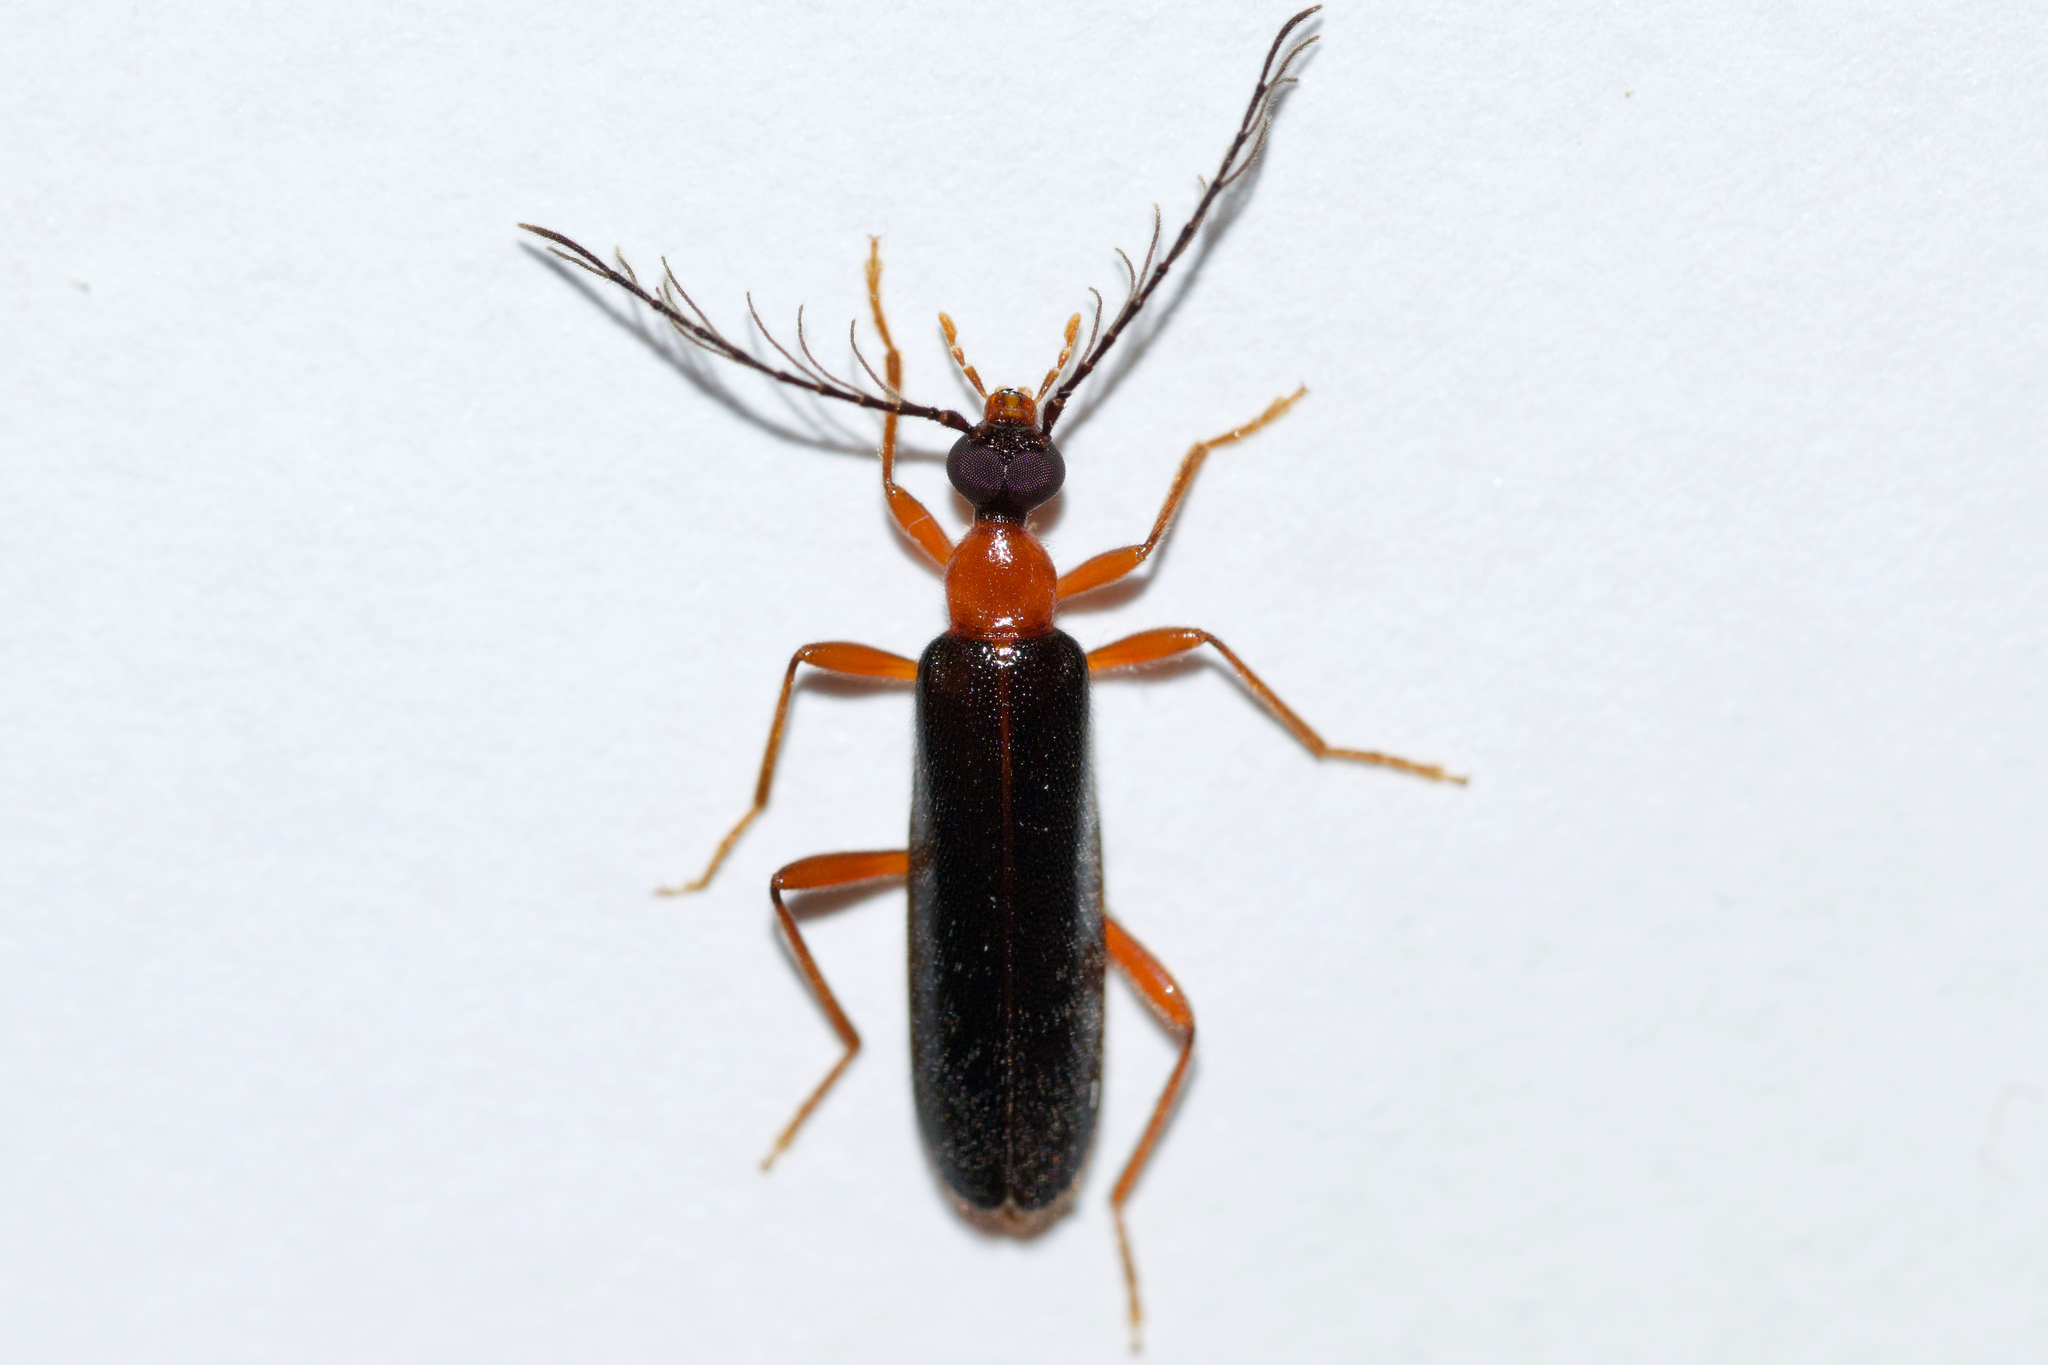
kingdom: Animalia
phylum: Arthropoda
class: Insecta
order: Coleoptera
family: Pyrochroidae
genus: Dendroides
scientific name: Dendroides canadensis
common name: Canada fire-colored beetle
